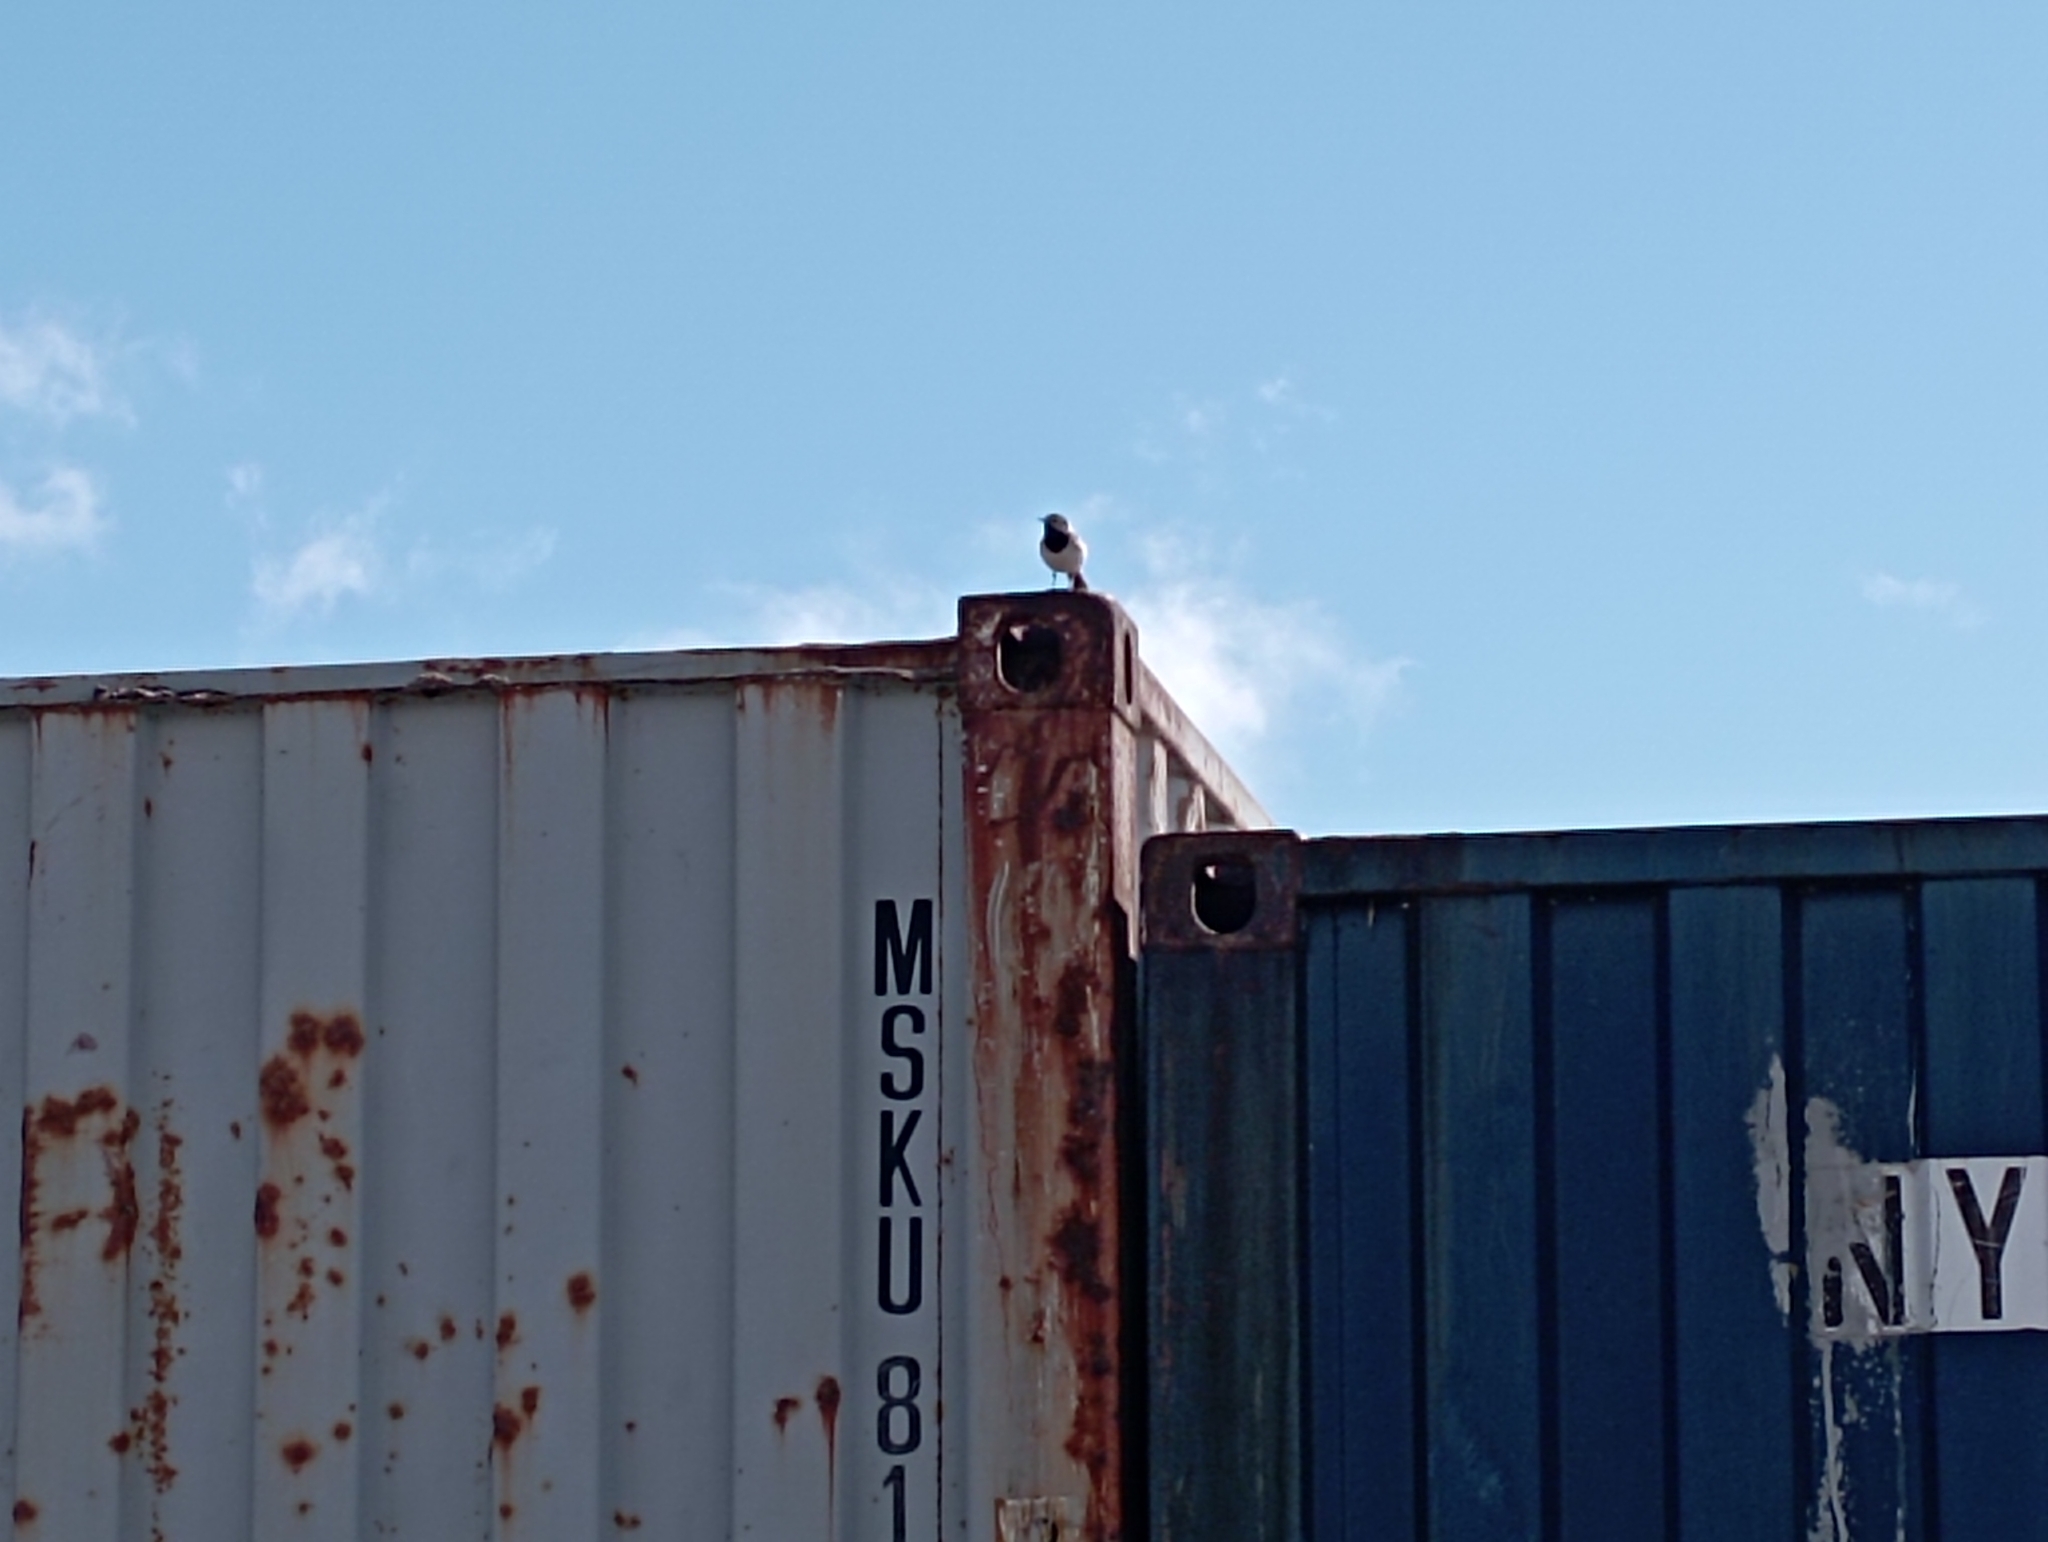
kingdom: Animalia
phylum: Chordata
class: Aves
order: Passeriformes
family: Motacillidae
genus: Motacilla
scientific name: Motacilla alba
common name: White wagtail
